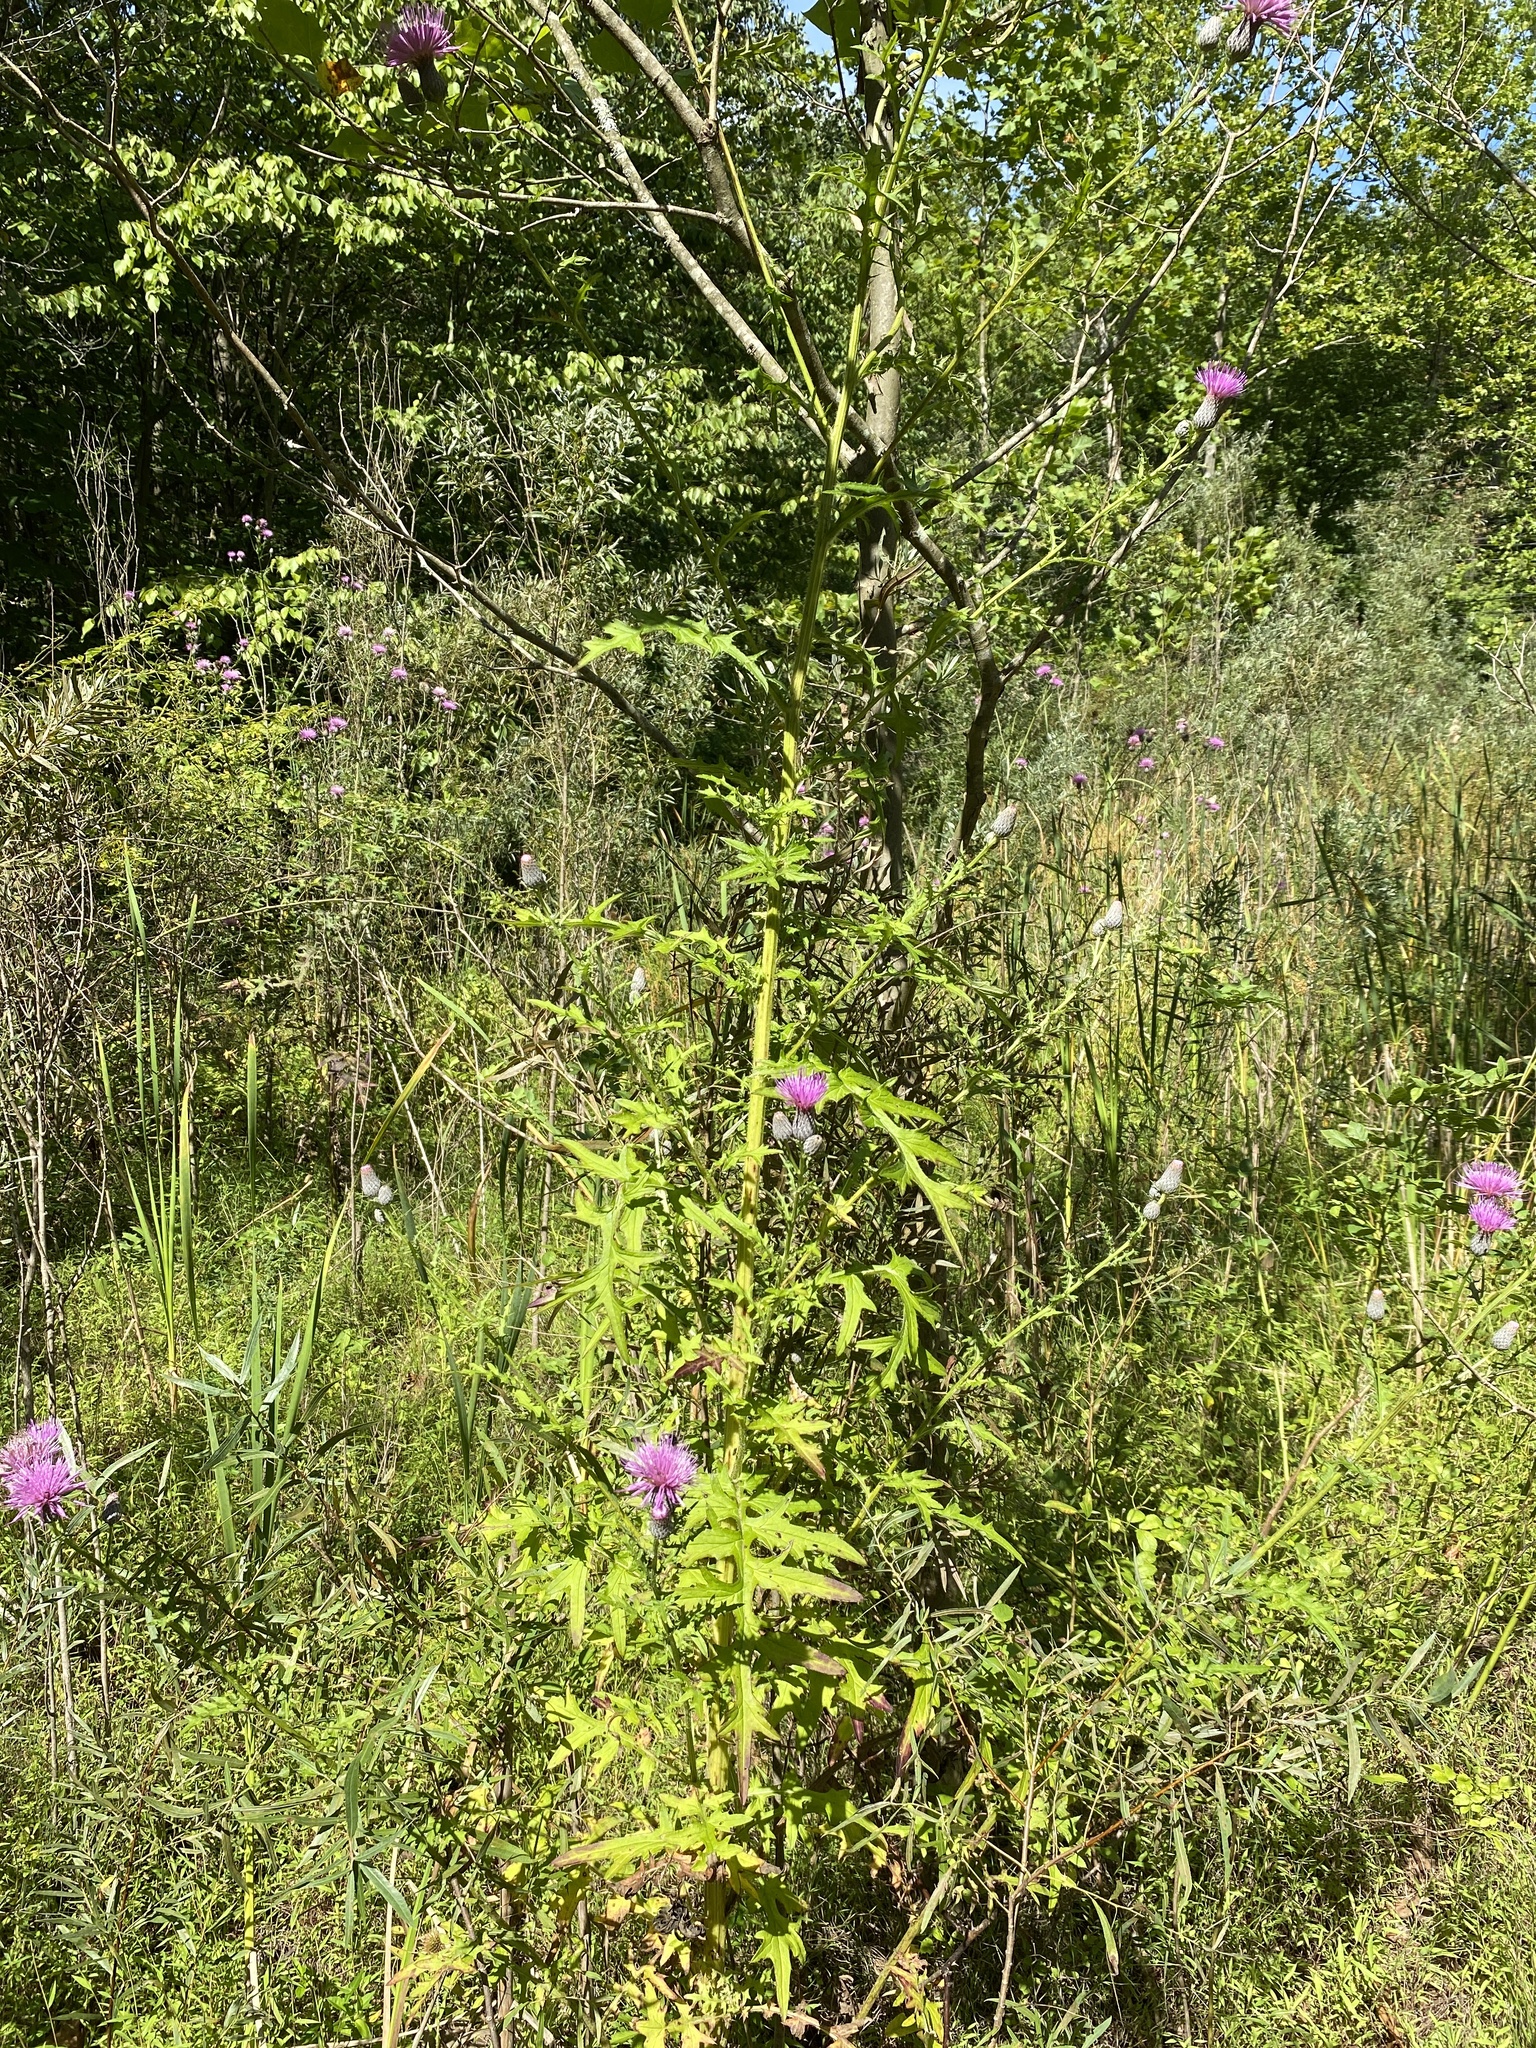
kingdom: Plantae
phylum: Tracheophyta
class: Magnoliopsida
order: Asterales
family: Asteraceae
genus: Cirsium
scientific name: Cirsium muticum
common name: Dunce-nettle
